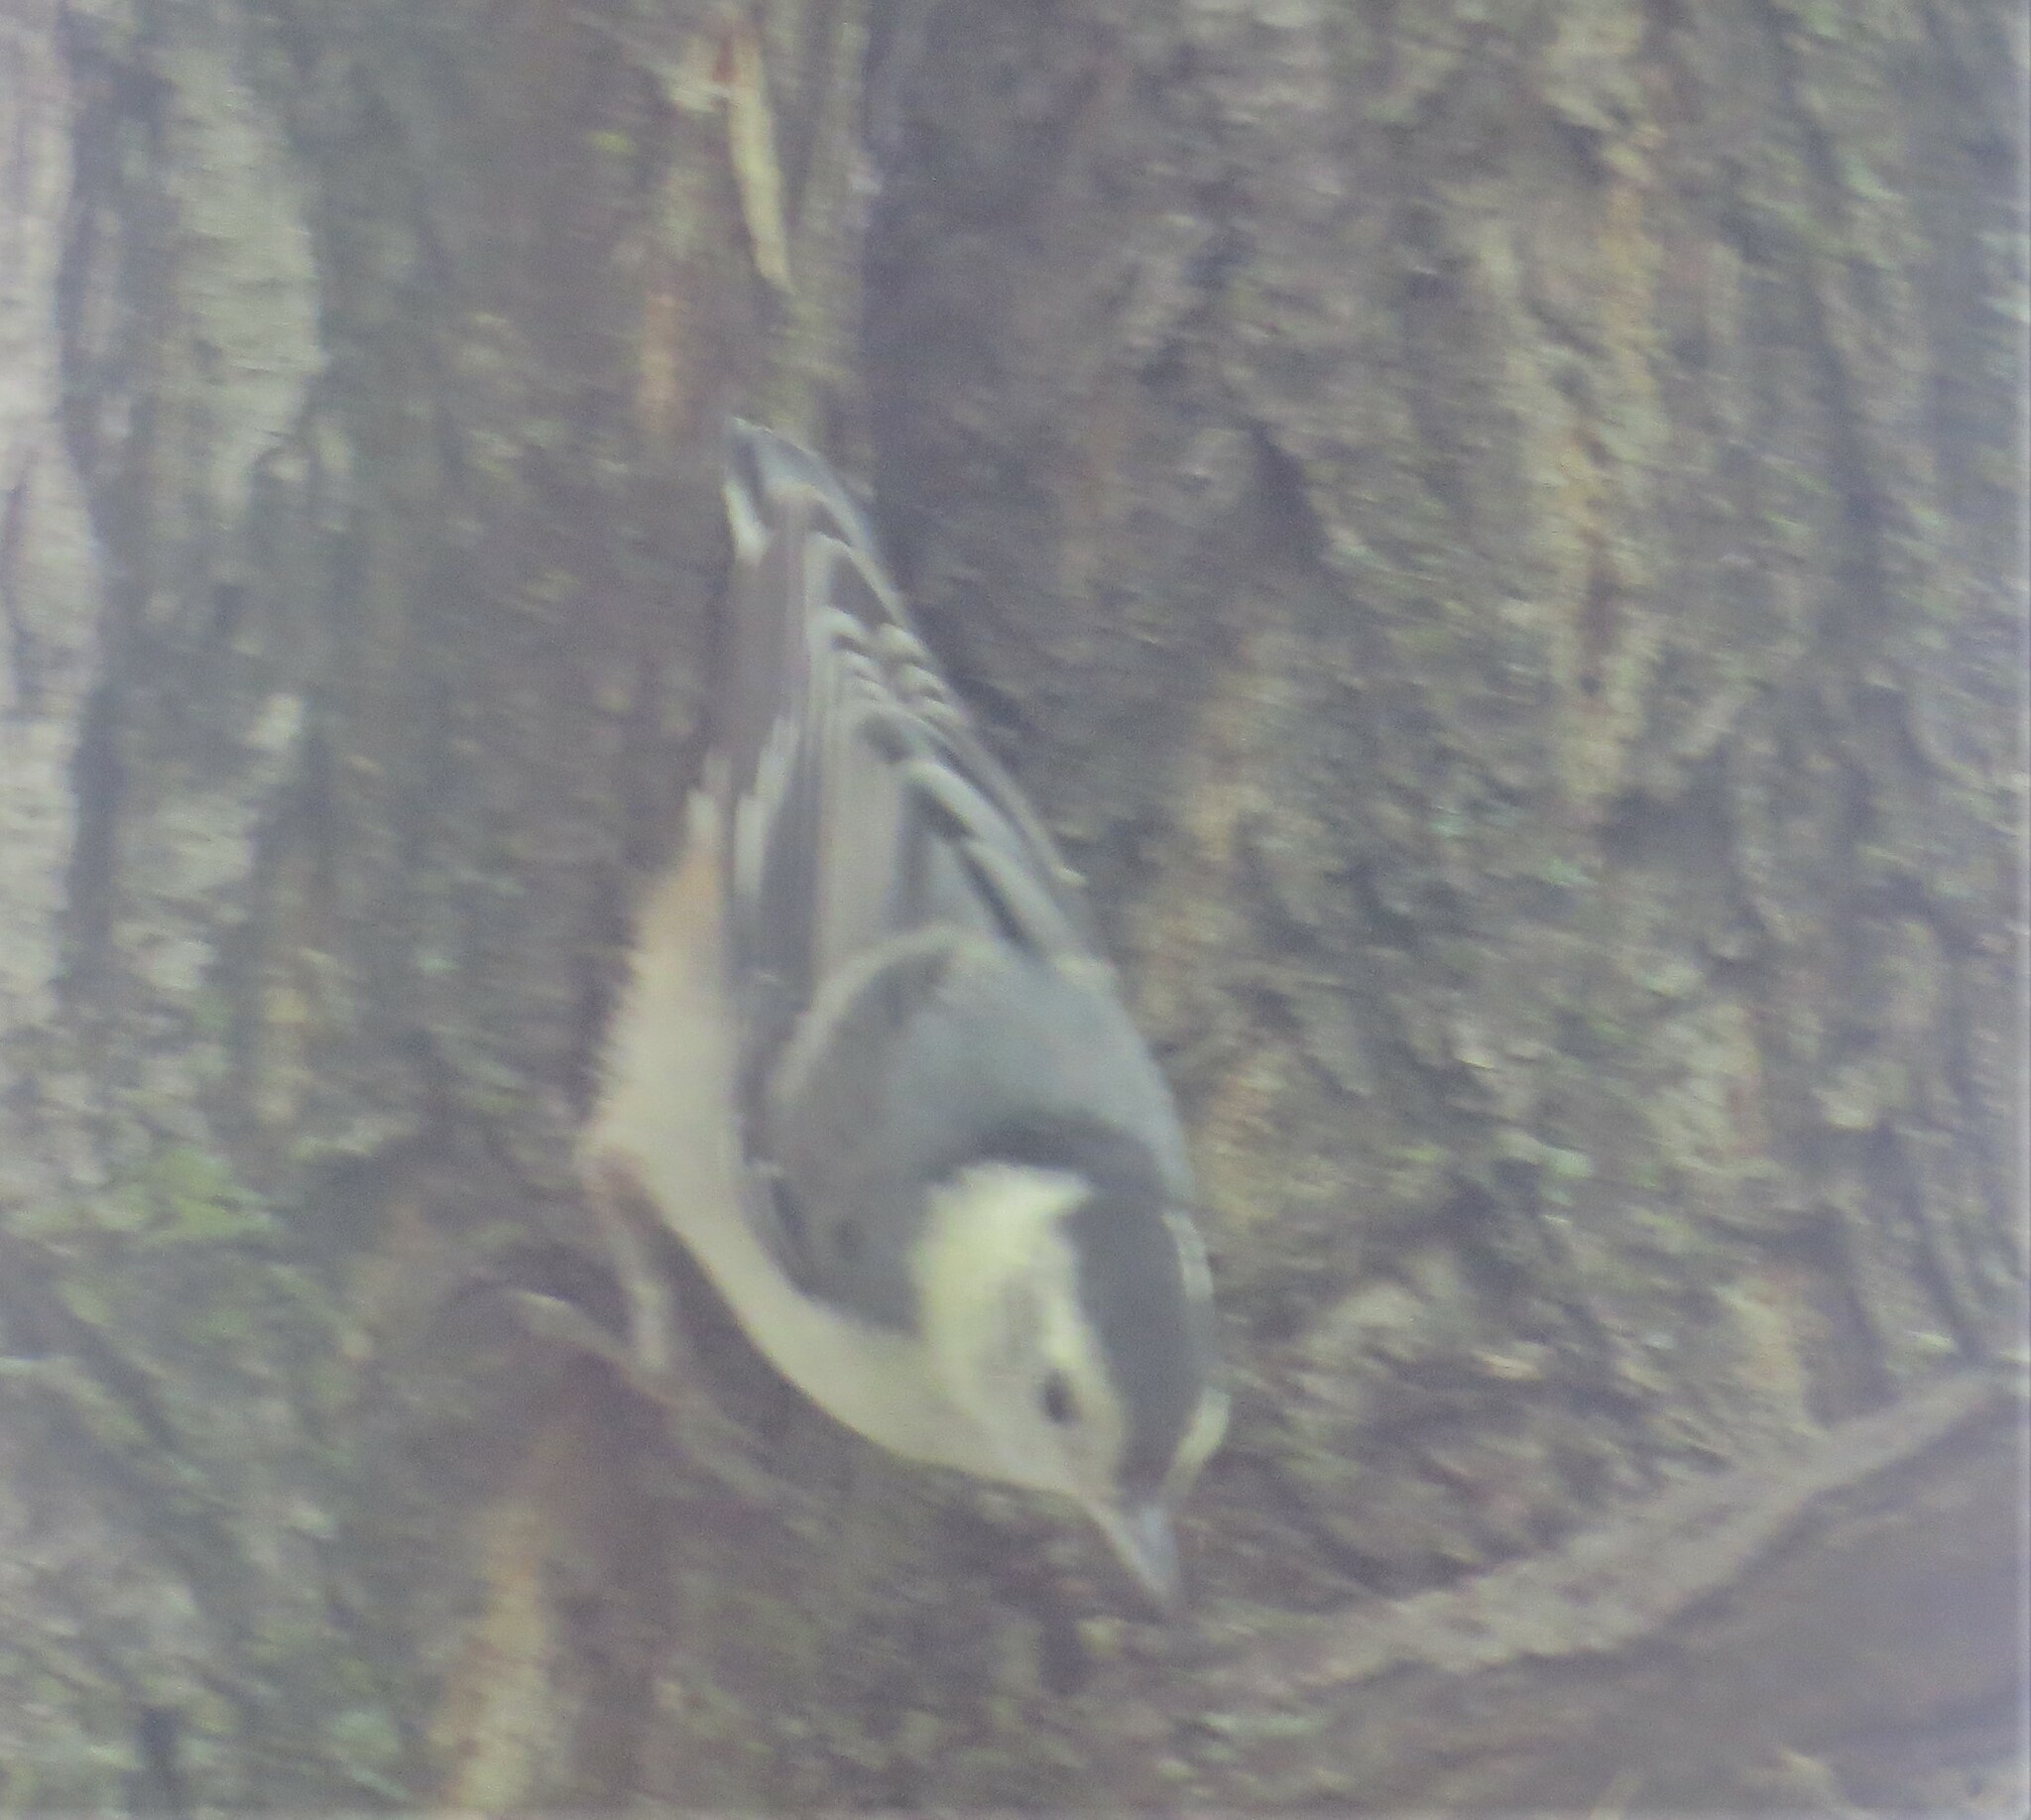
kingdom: Animalia
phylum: Chordata
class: Aves
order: Passeriformes
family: Sittidae
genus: Sitta
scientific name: Sitta carolinensis
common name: White-breasted nuthatch
